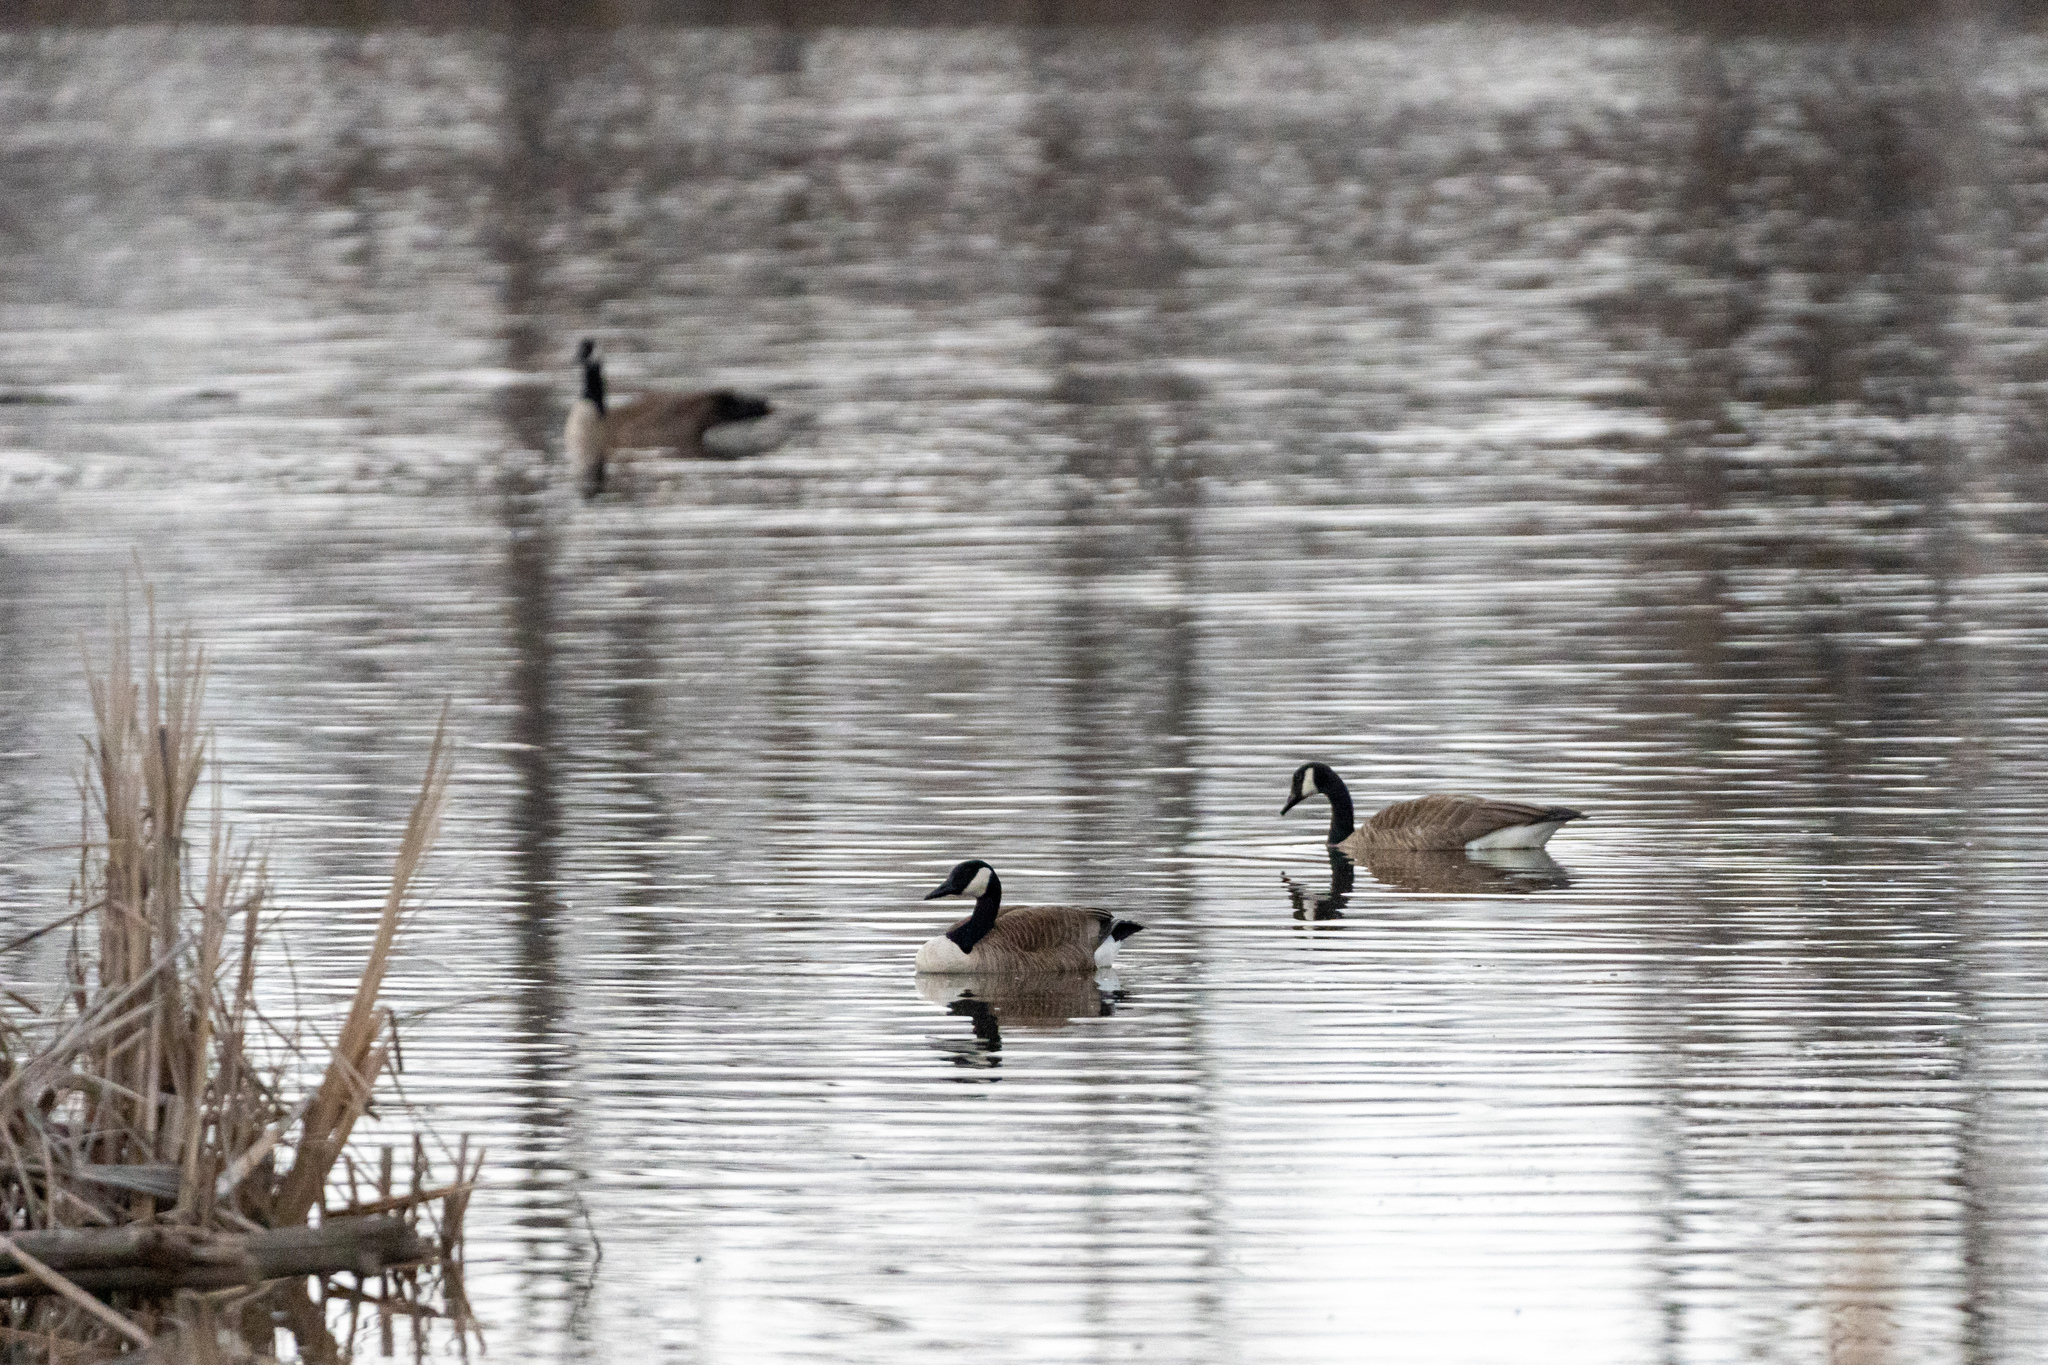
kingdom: Animalia
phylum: Chordata
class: Aves
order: Anseriformes
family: Anatidae
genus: Branta
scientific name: Branta canadensis
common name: Canada goose
